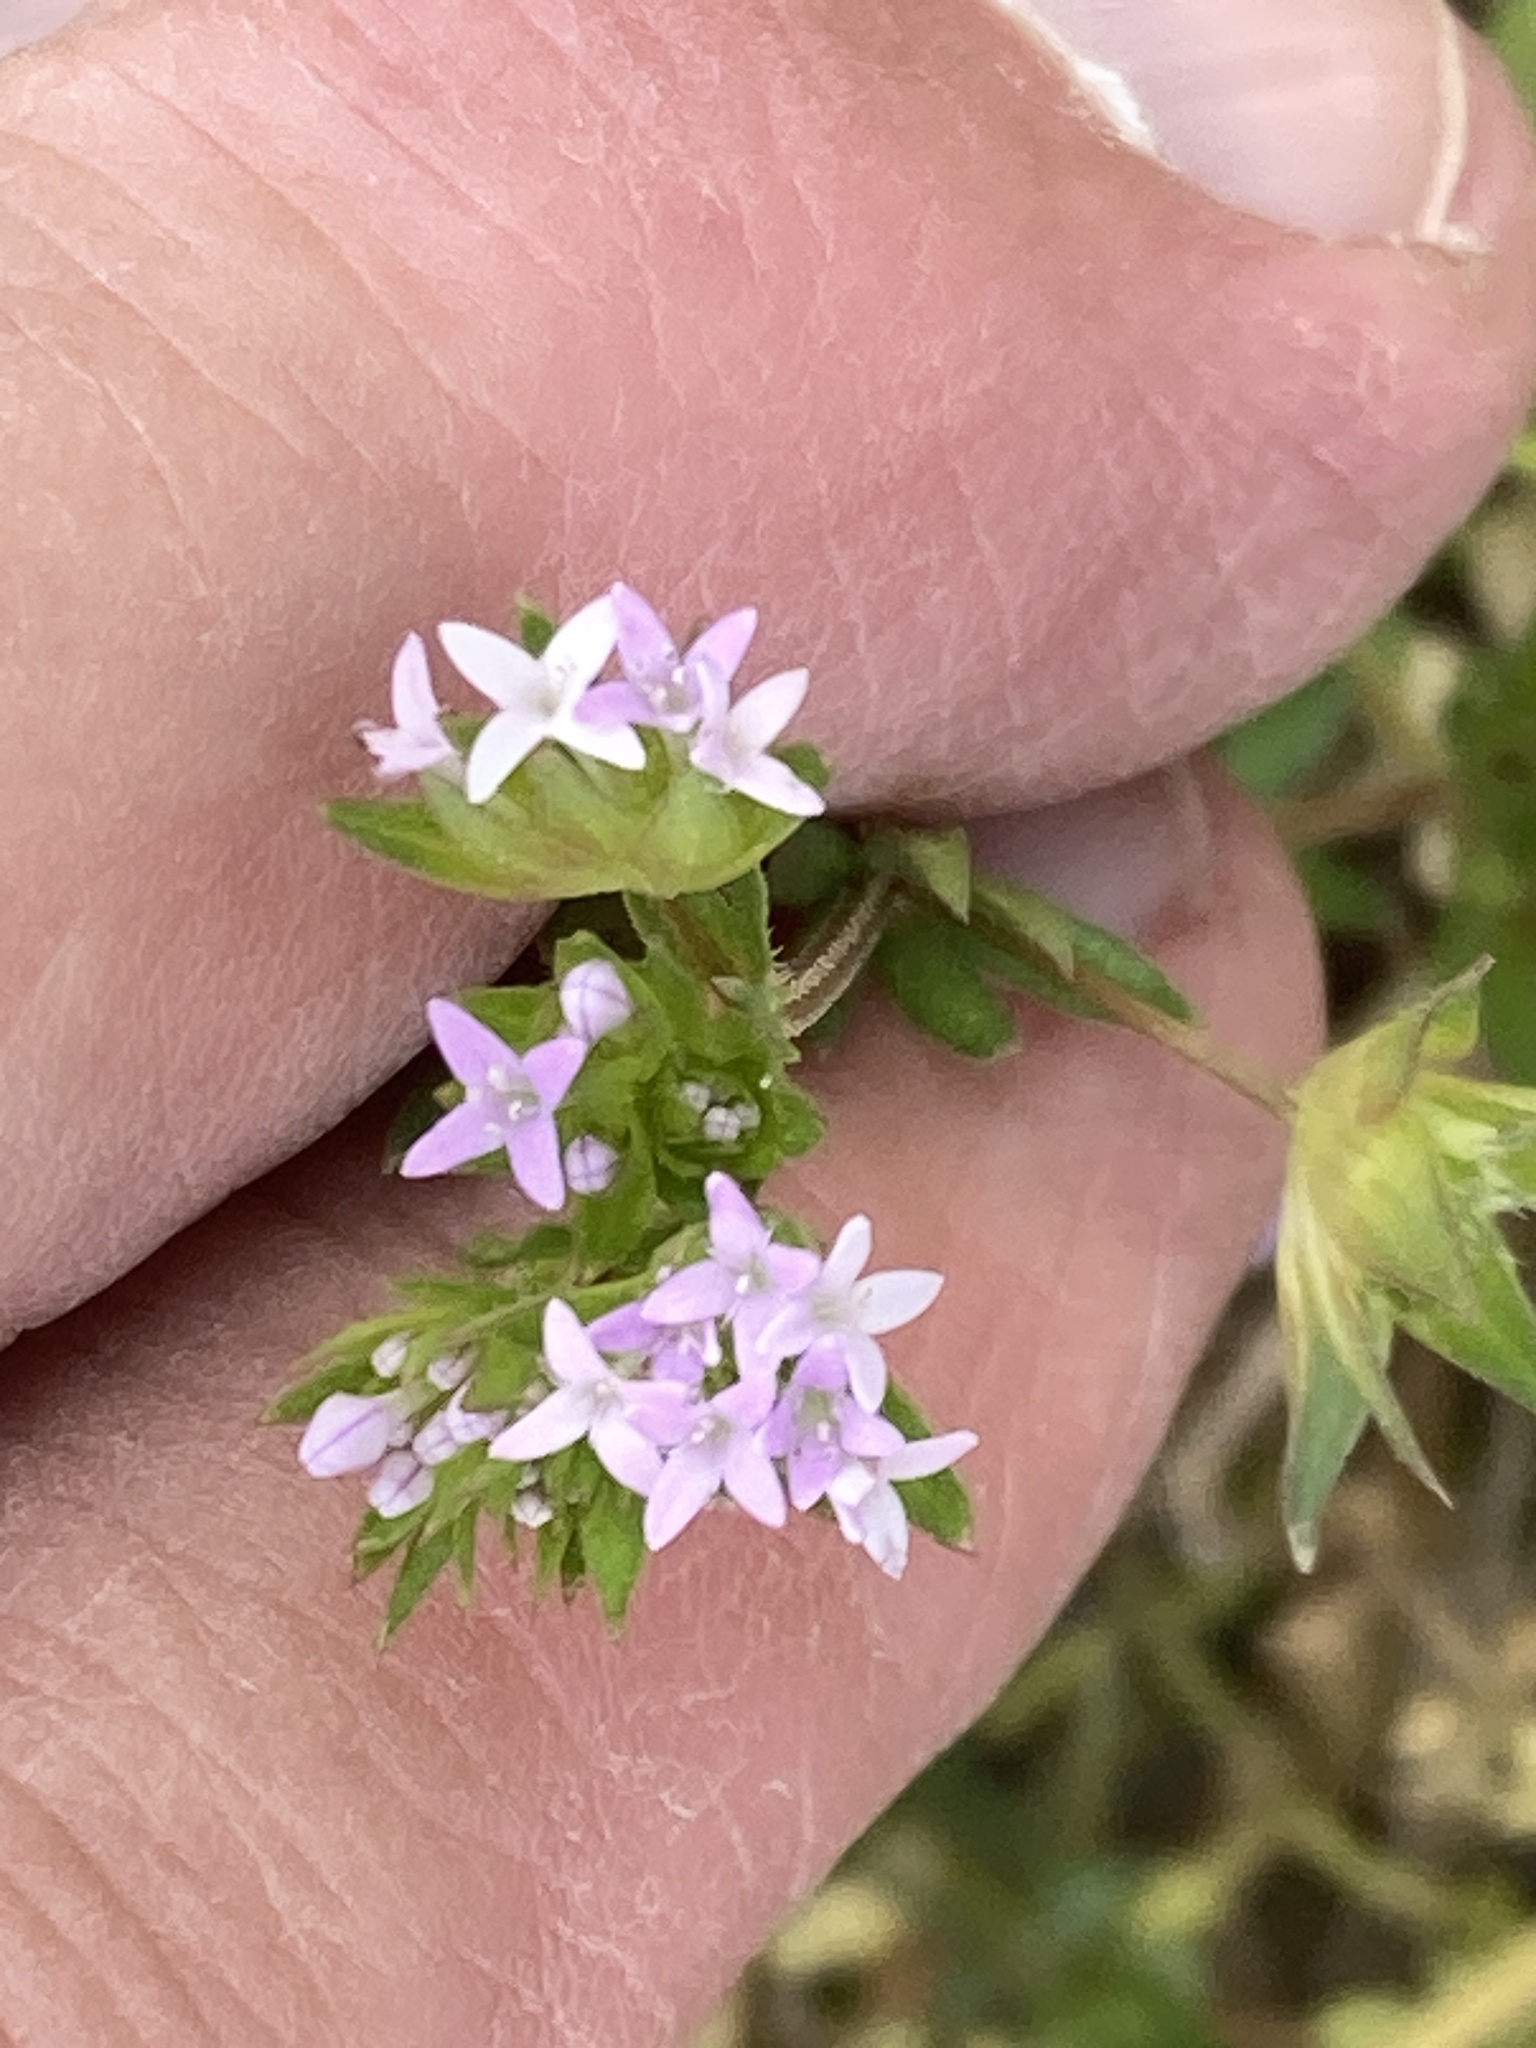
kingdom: Plantae
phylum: Tracheophyta
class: Magnoliopsida
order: Gentianales
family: Rubiaceae
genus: Sherardia
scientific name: Sherardia arvensis
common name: Field madder
